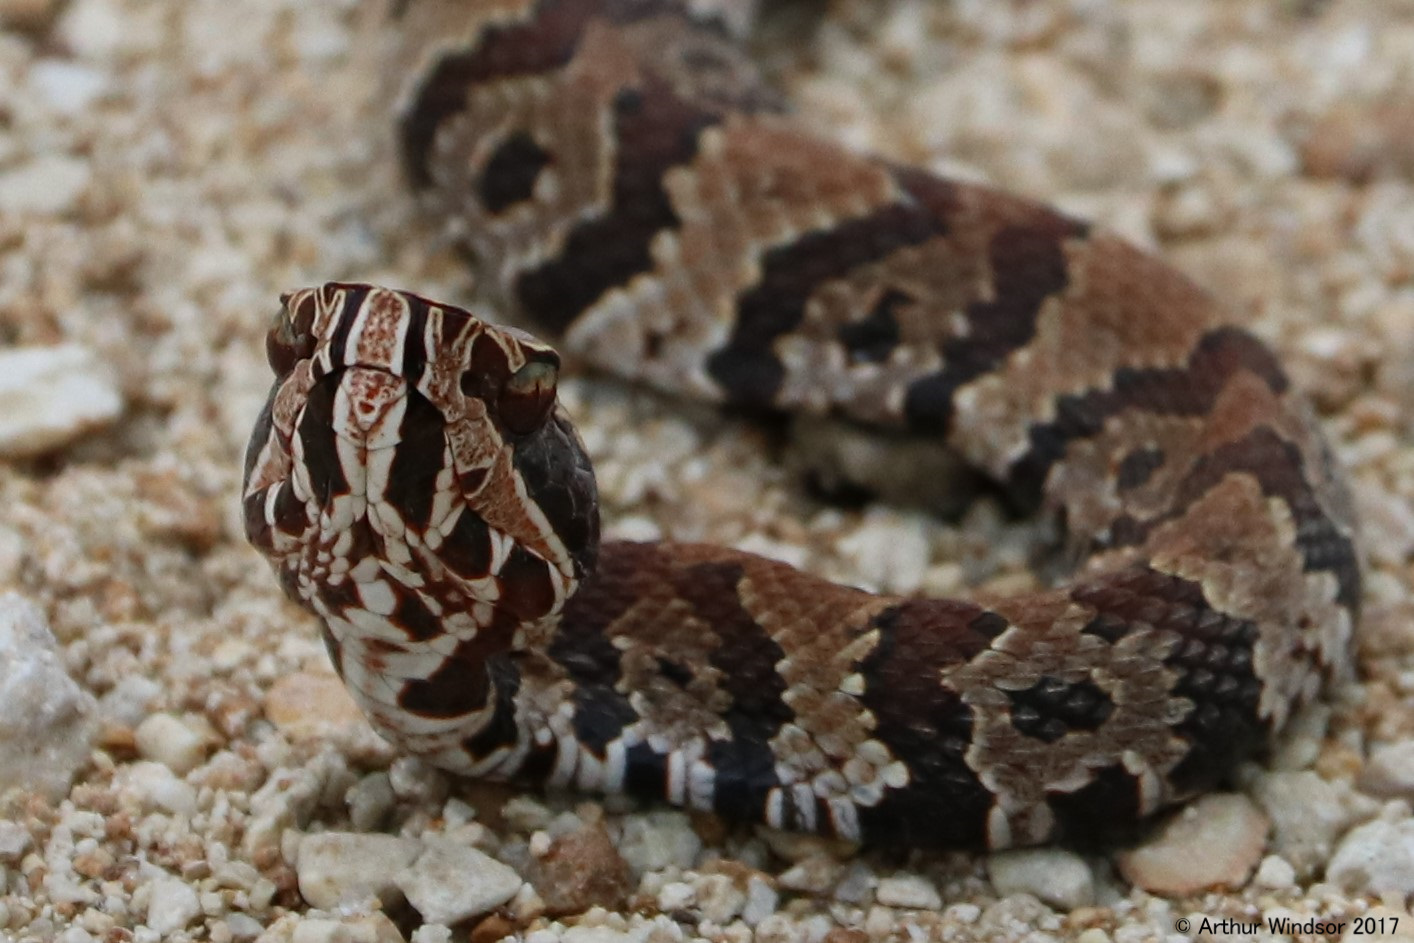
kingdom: Animalia
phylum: Chordata
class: Squamata
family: Viperidae
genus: Agkistrodon
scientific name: Agkistrodon conanti
